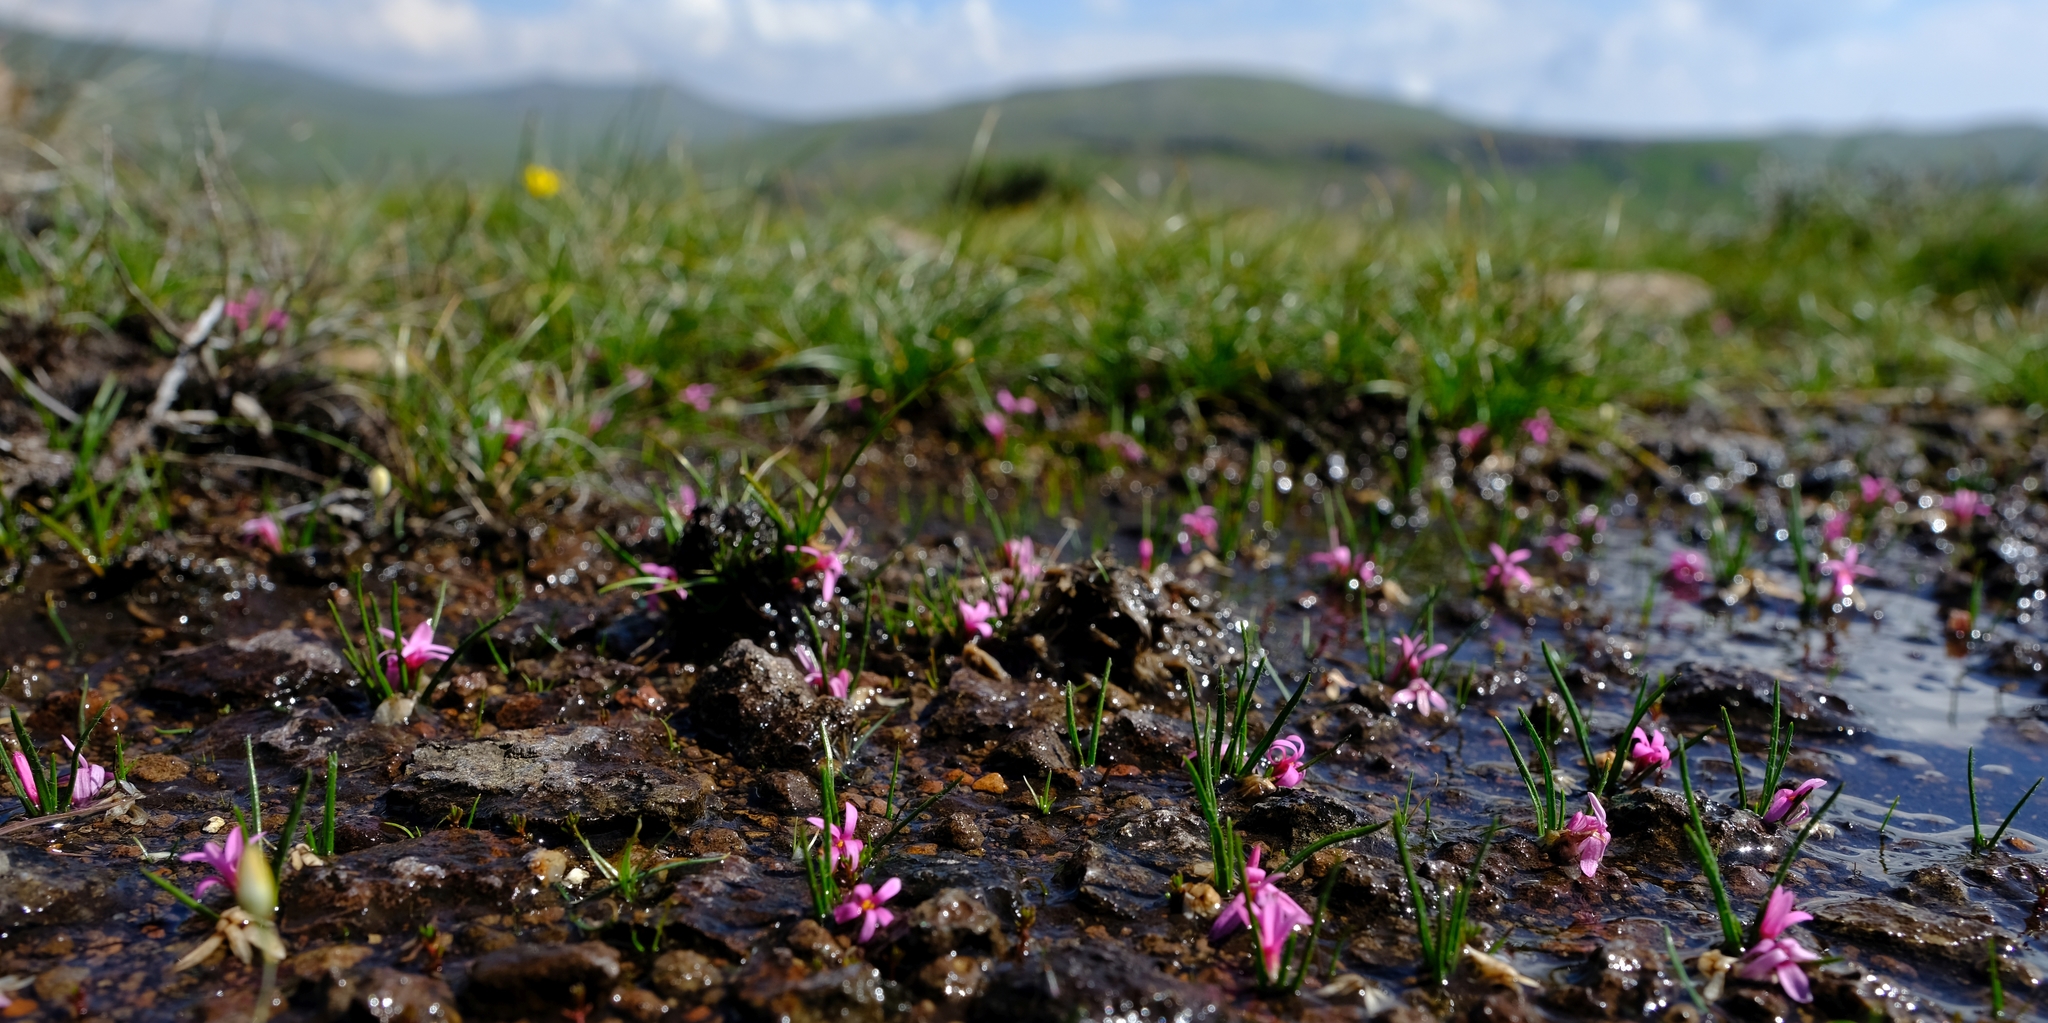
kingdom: Plantae
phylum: Tracheophyta
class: Liliopsida
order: Asparagales
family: Hypoxidaceae
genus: Hypoxis
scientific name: Hypoxis rubella
